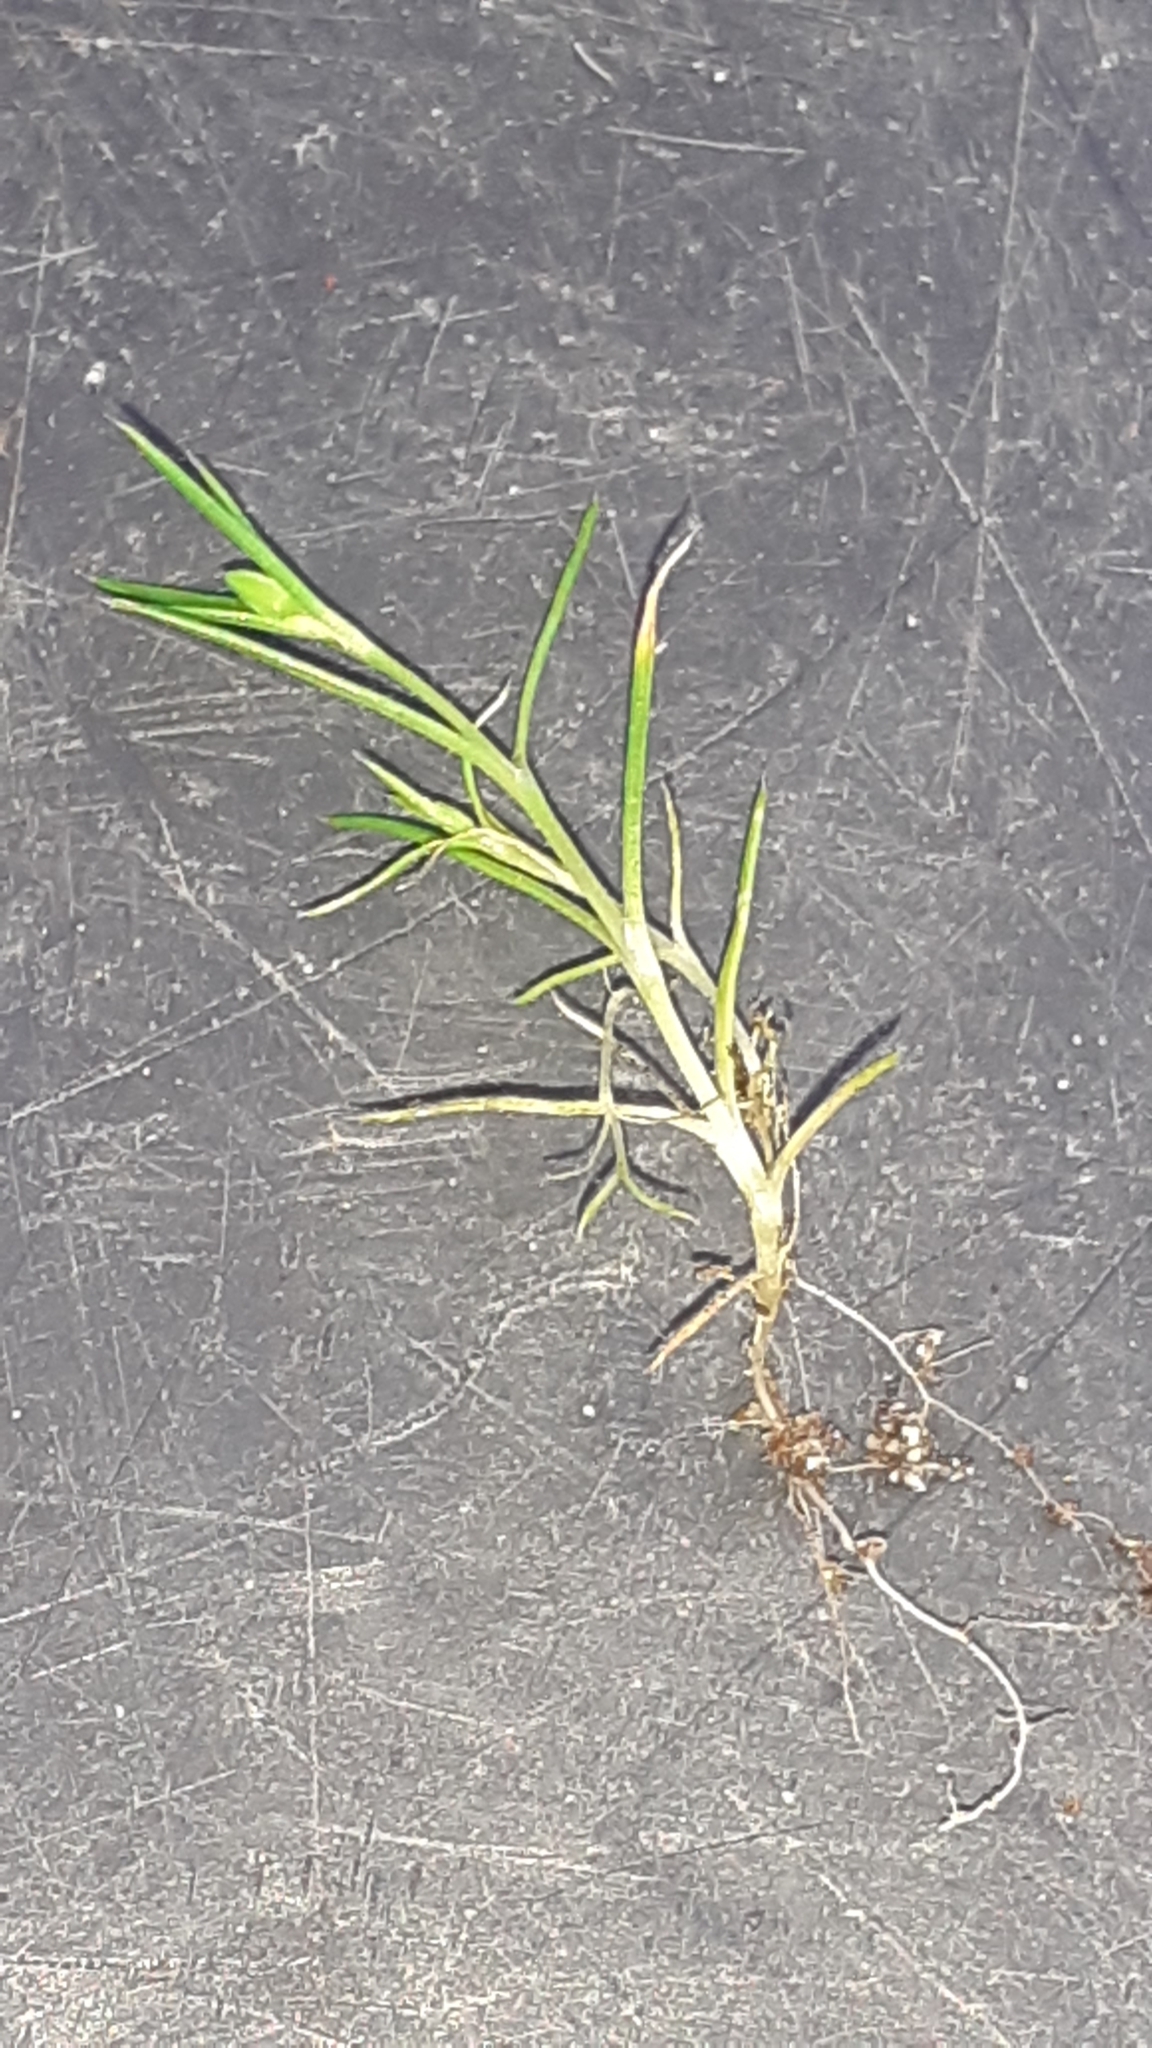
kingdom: Plantae
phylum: Tracheophyta
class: Magnoliopsida
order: Caryophyllales
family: Caryophyllaceae
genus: Spergula
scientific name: Spergula arvensis
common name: Corn spurrey
